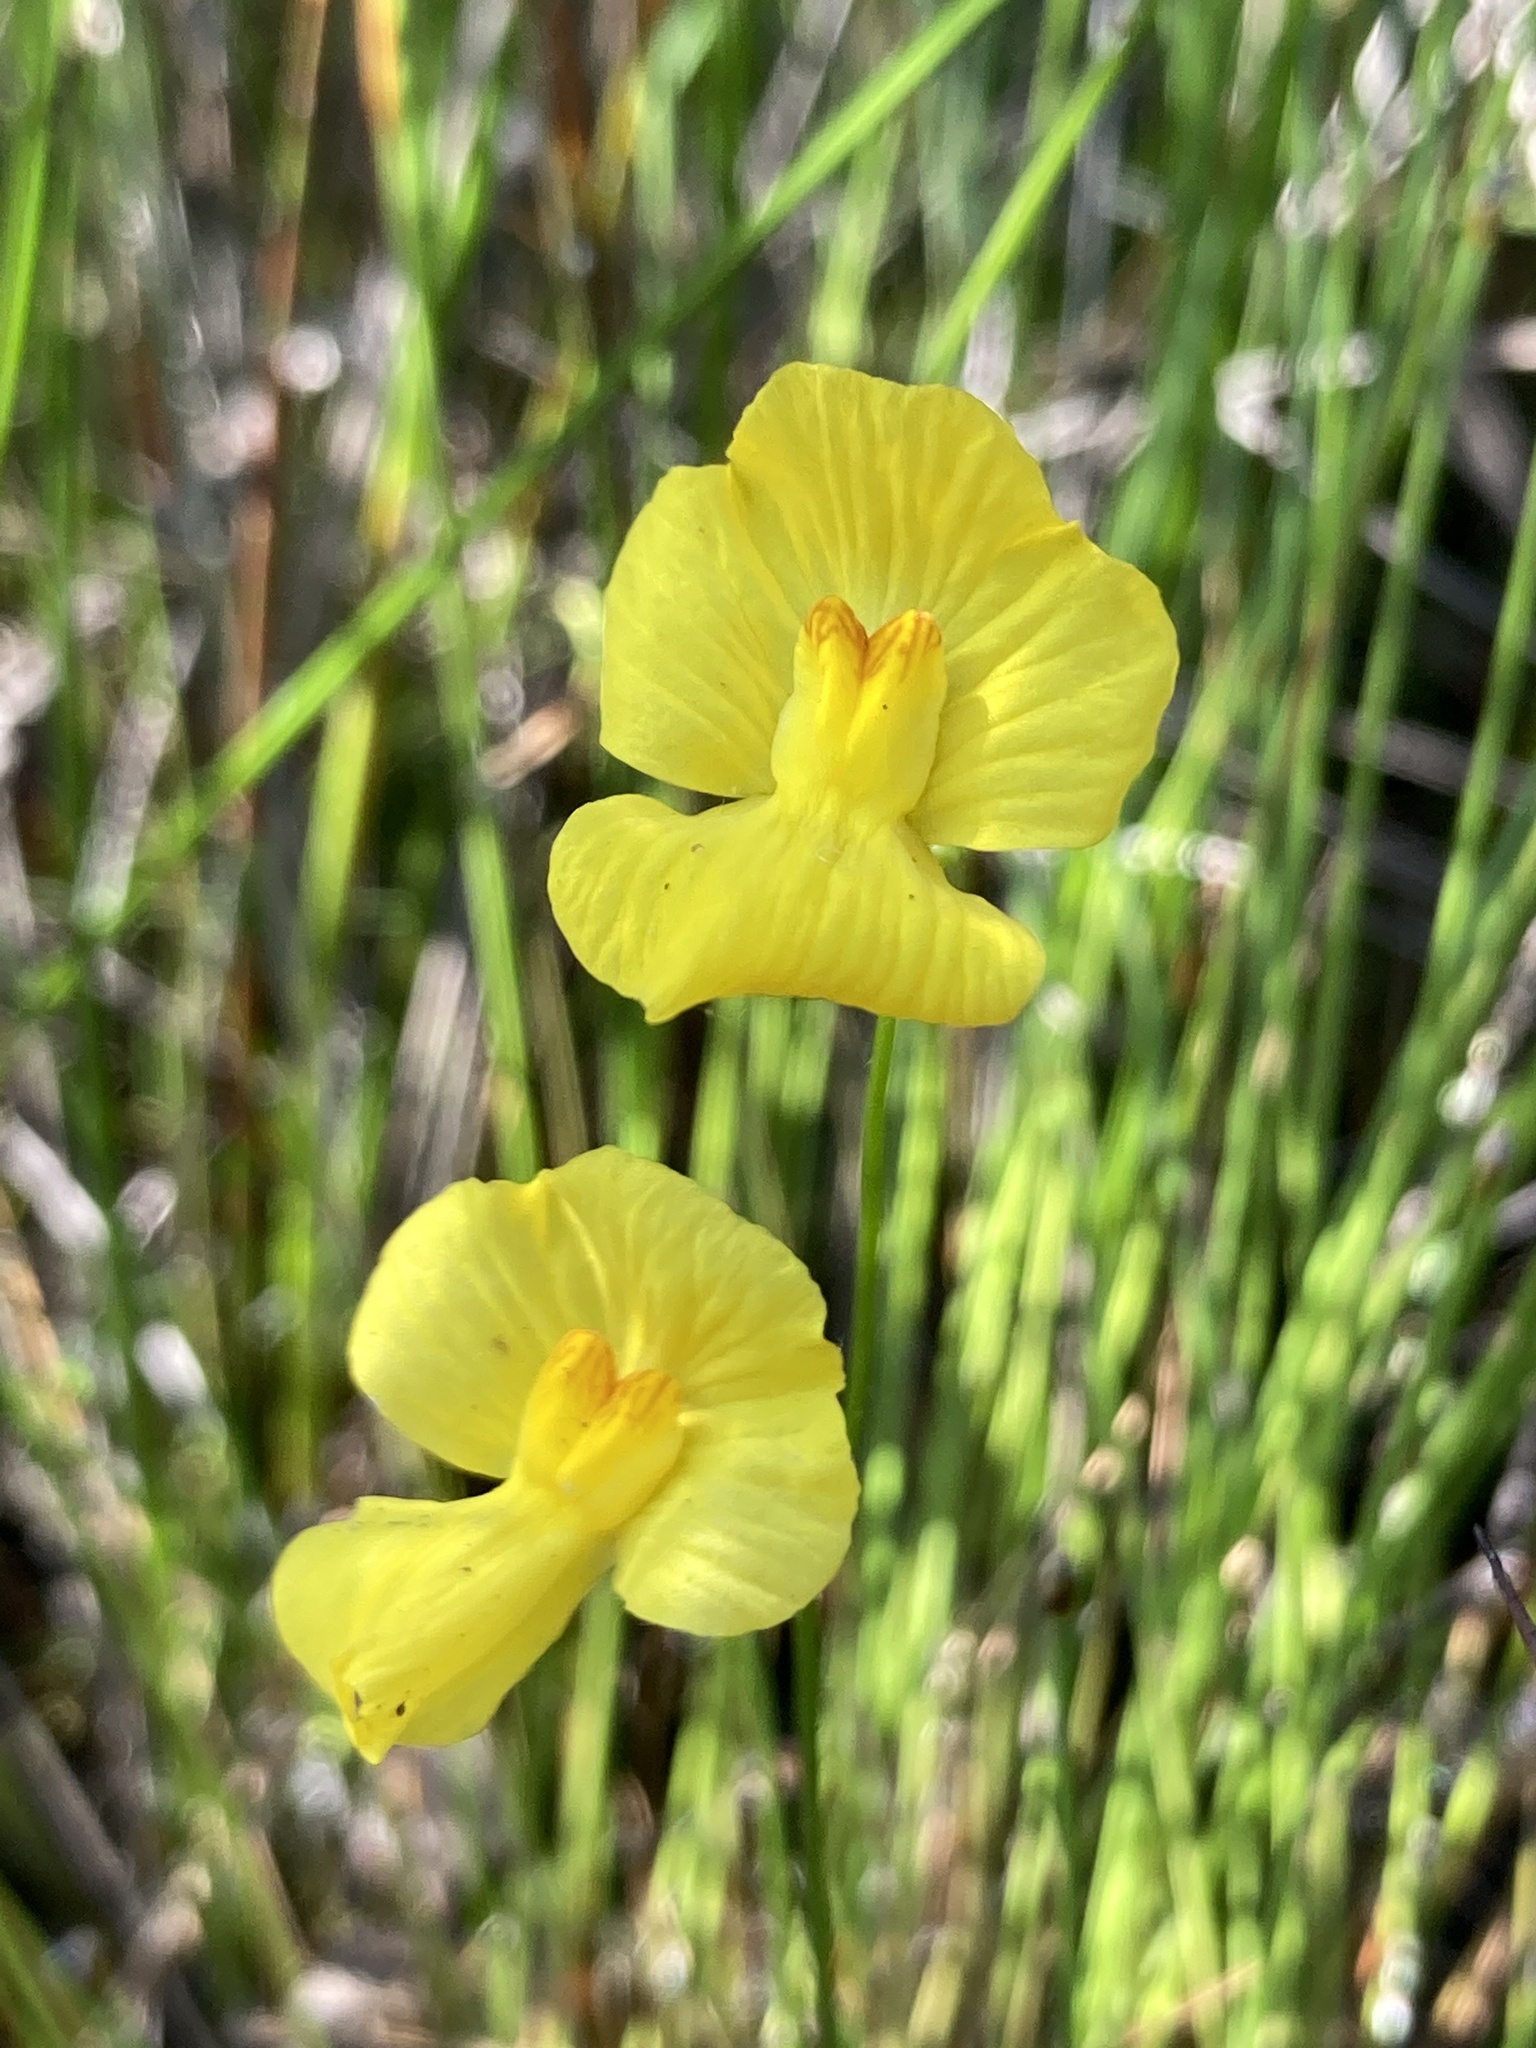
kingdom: Plantae
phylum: Tracheophyta
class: Magnoliopsida
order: Lamiales
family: Lentibulariaceae
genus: Utricularia
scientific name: Utricularia striata
